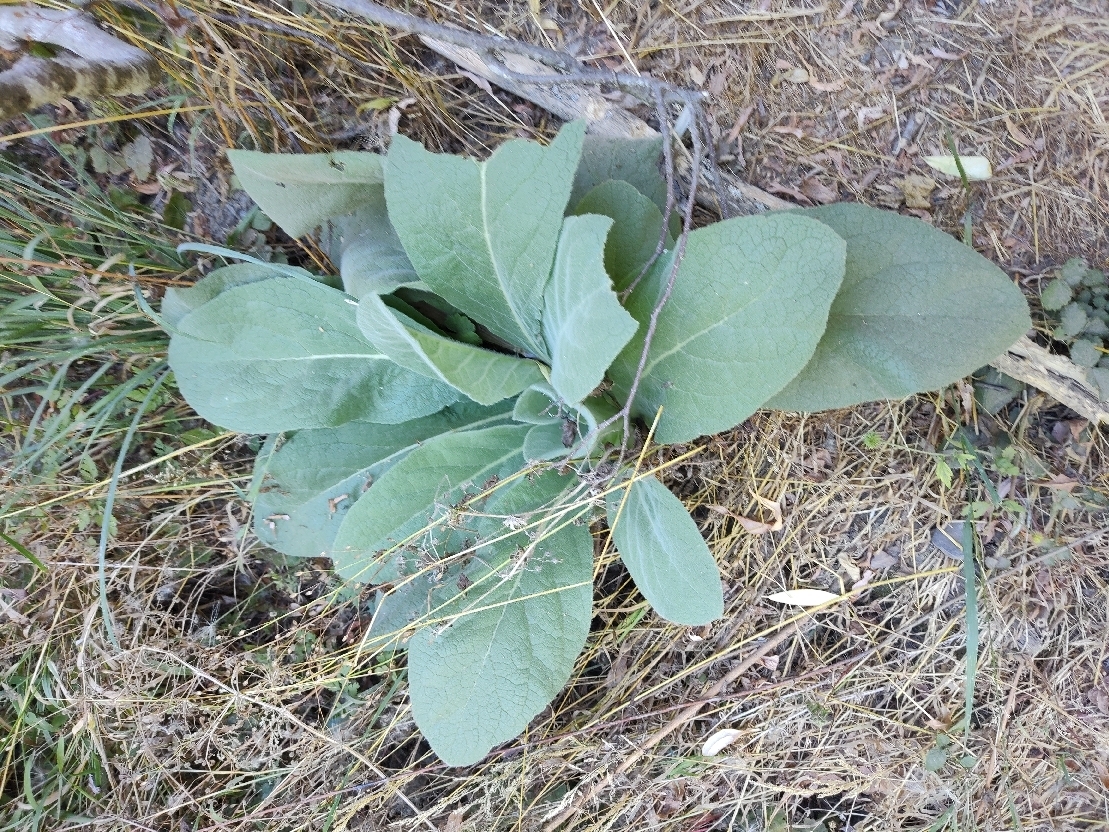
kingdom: Plantae
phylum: Tracheophyta
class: Magnoliopsida
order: Lamiales
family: Scrophulariaceae
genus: Verbascum
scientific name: Verbascum thapsus
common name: Common mullein
